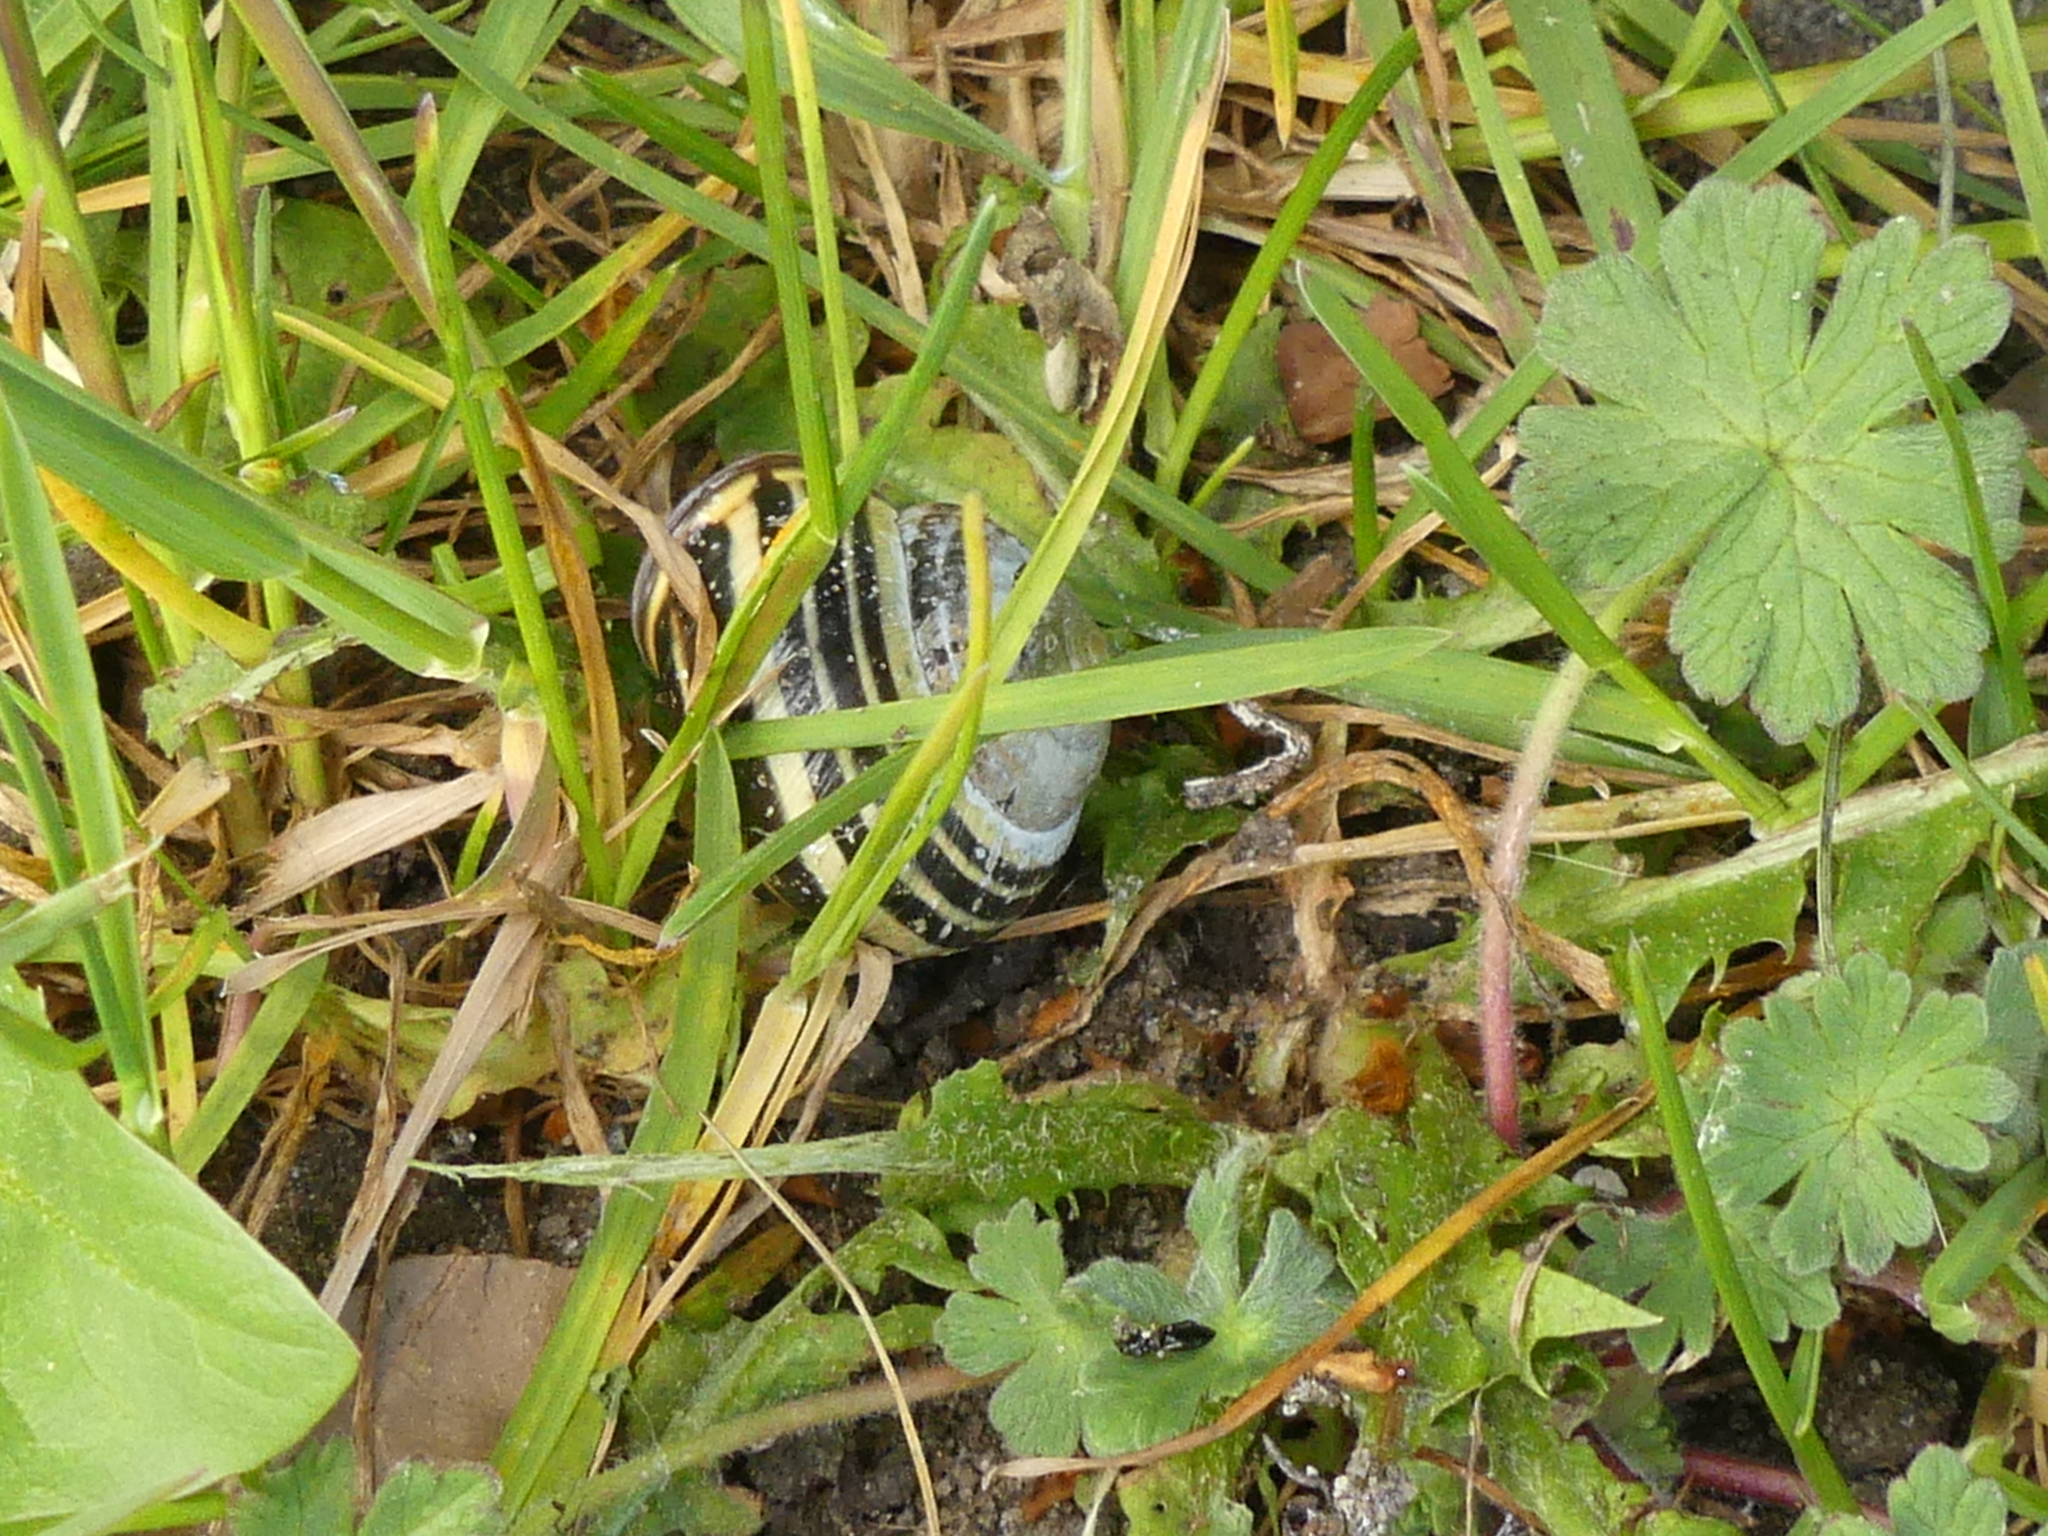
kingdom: Animalia
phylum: Mollusca
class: Gastropoda
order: Stylommatophora
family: Helicidae
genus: Cepaea
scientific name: Cepaea nemoralis
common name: Grovesnail
